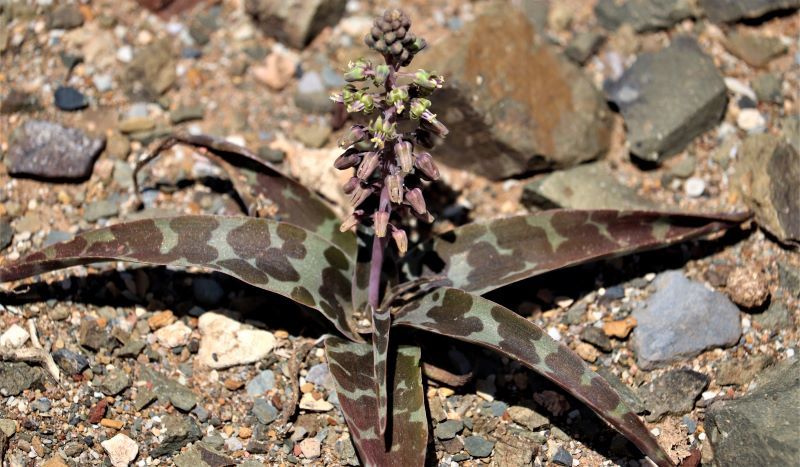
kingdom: Plantae
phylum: Tracheophyta
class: Liliopsida
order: Asparagales
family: Asparagaceae
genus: Ledebouria
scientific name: Ledebouria ensifolia
